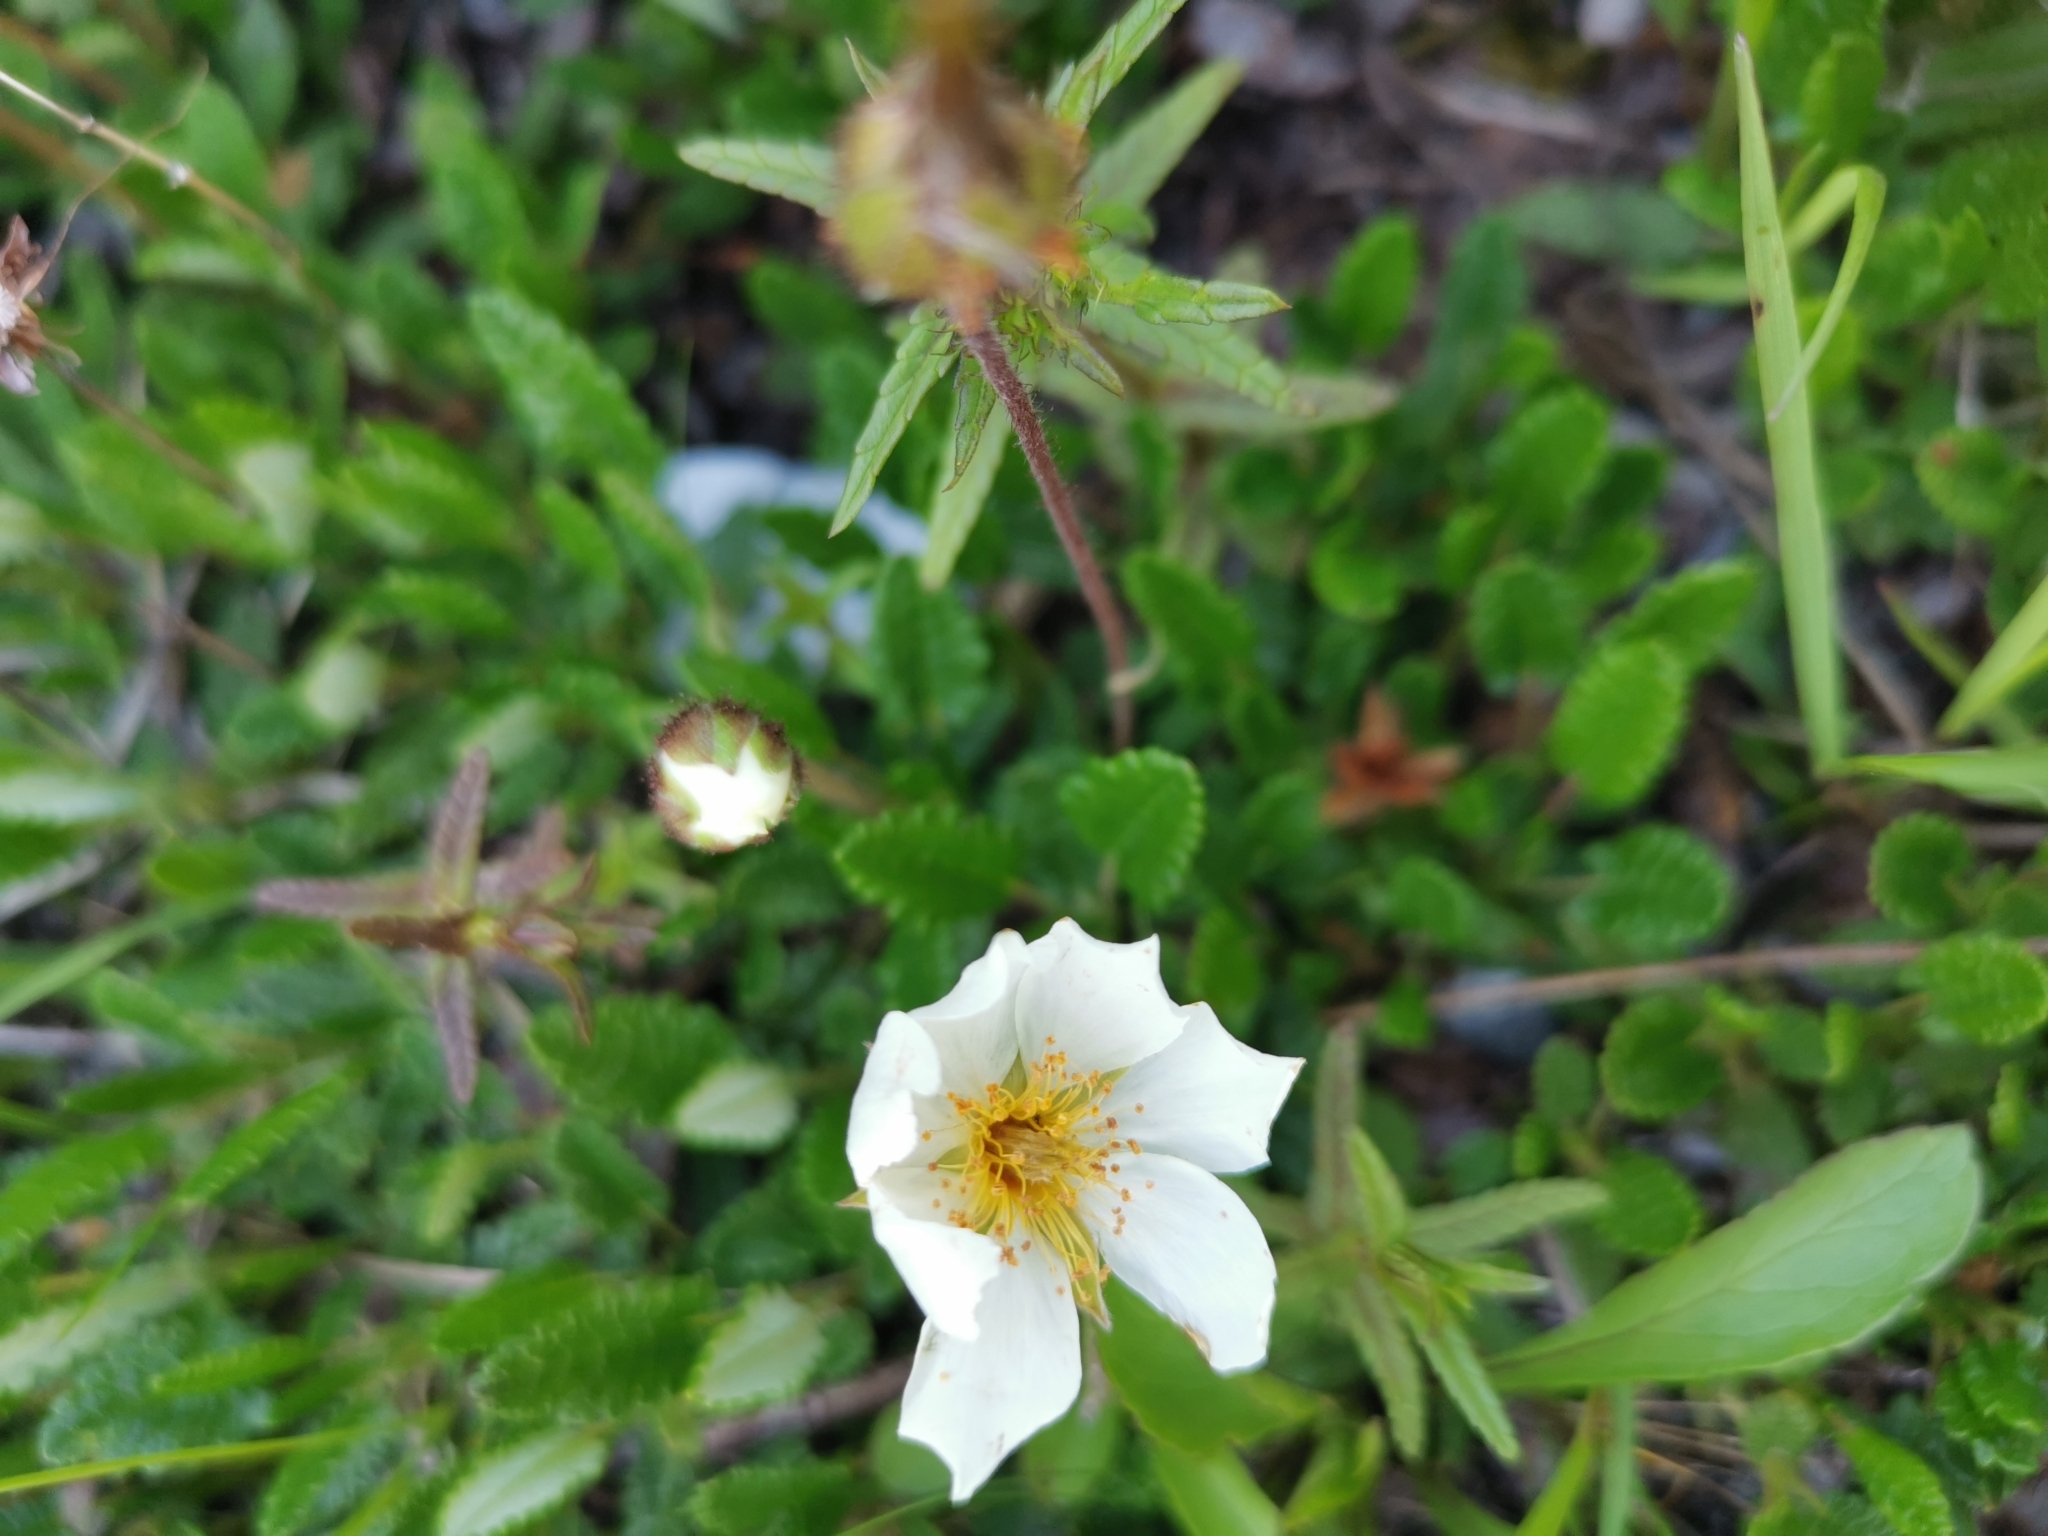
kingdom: Plantae
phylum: Tracheophyta
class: Magnoliopsida
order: Rosales
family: Rosaceae
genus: Dryas
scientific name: Dryas octopetala
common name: Eight-petal mountain-avens
